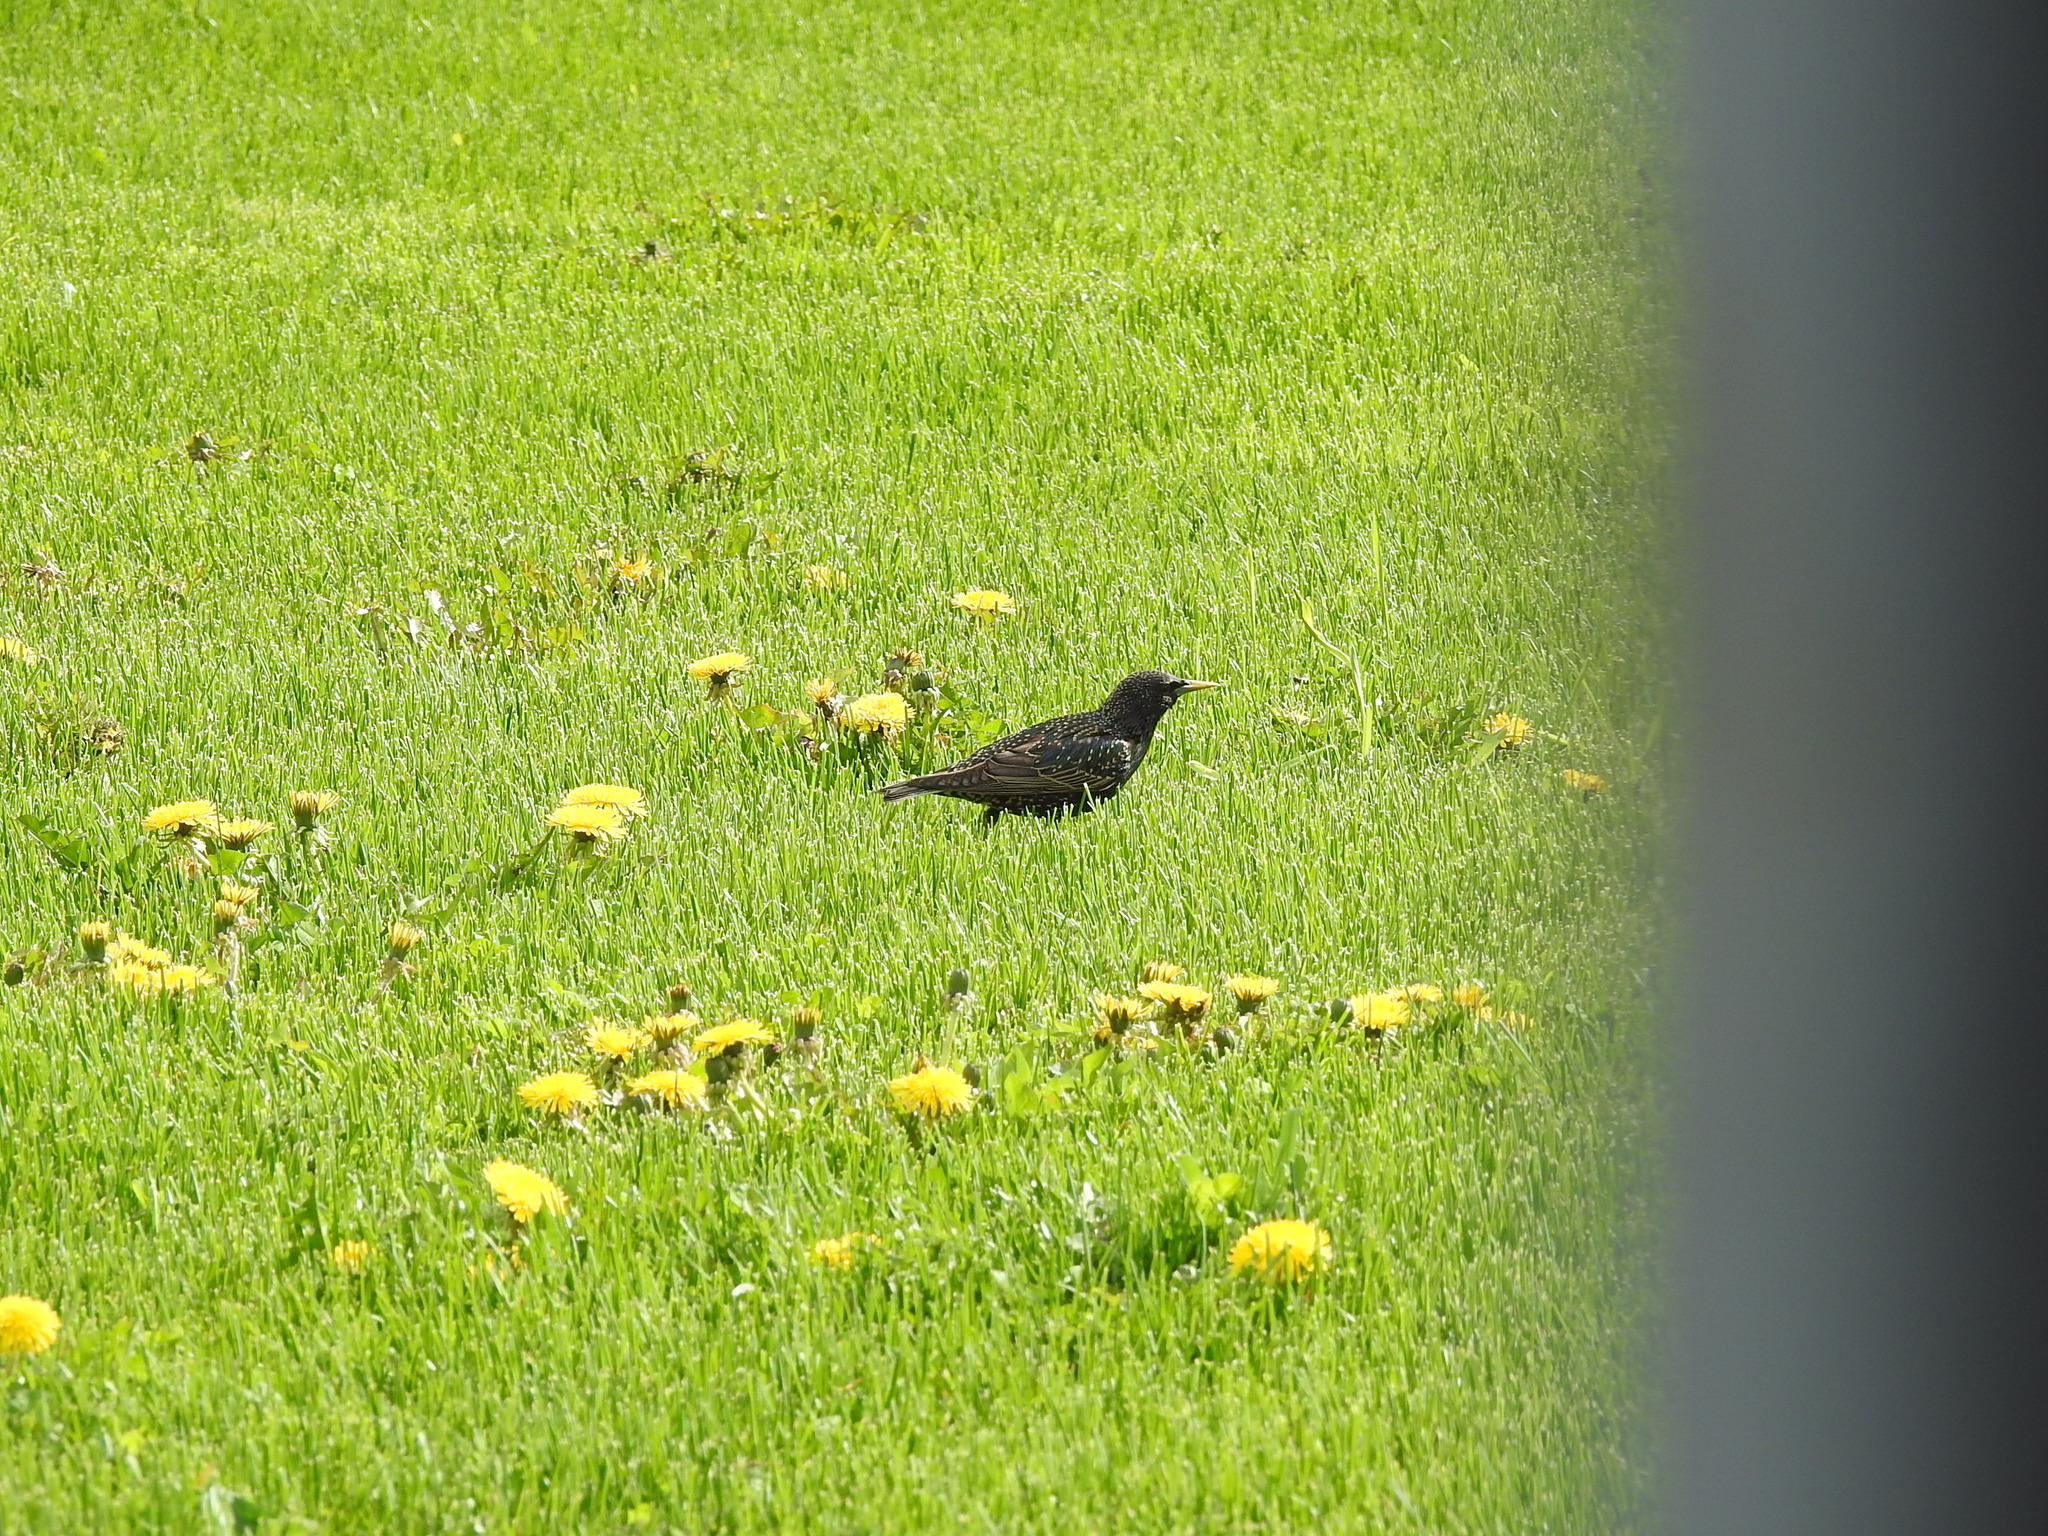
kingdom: Animalia
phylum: Chordata
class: Aves
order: Passeriformes
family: Sturnidae
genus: Sturnus
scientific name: Sturnus vulgaris
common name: Common starling
